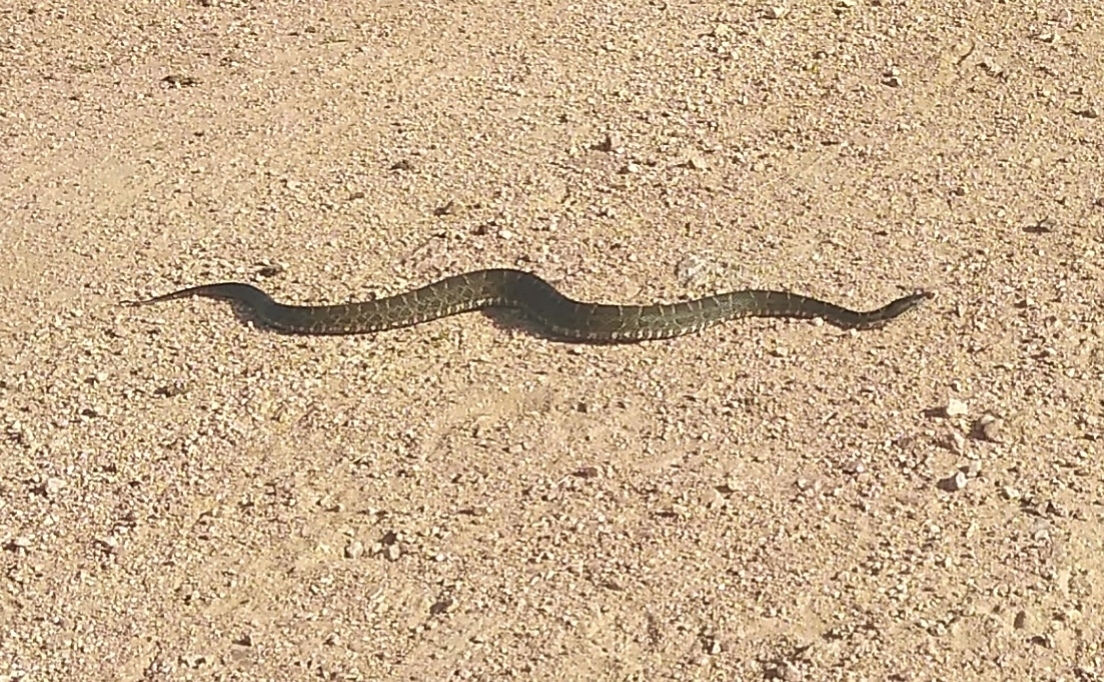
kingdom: Animalia
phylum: Chordata
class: Squamata
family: Viperidae
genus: Bothrops
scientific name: Bothrops pubescens
